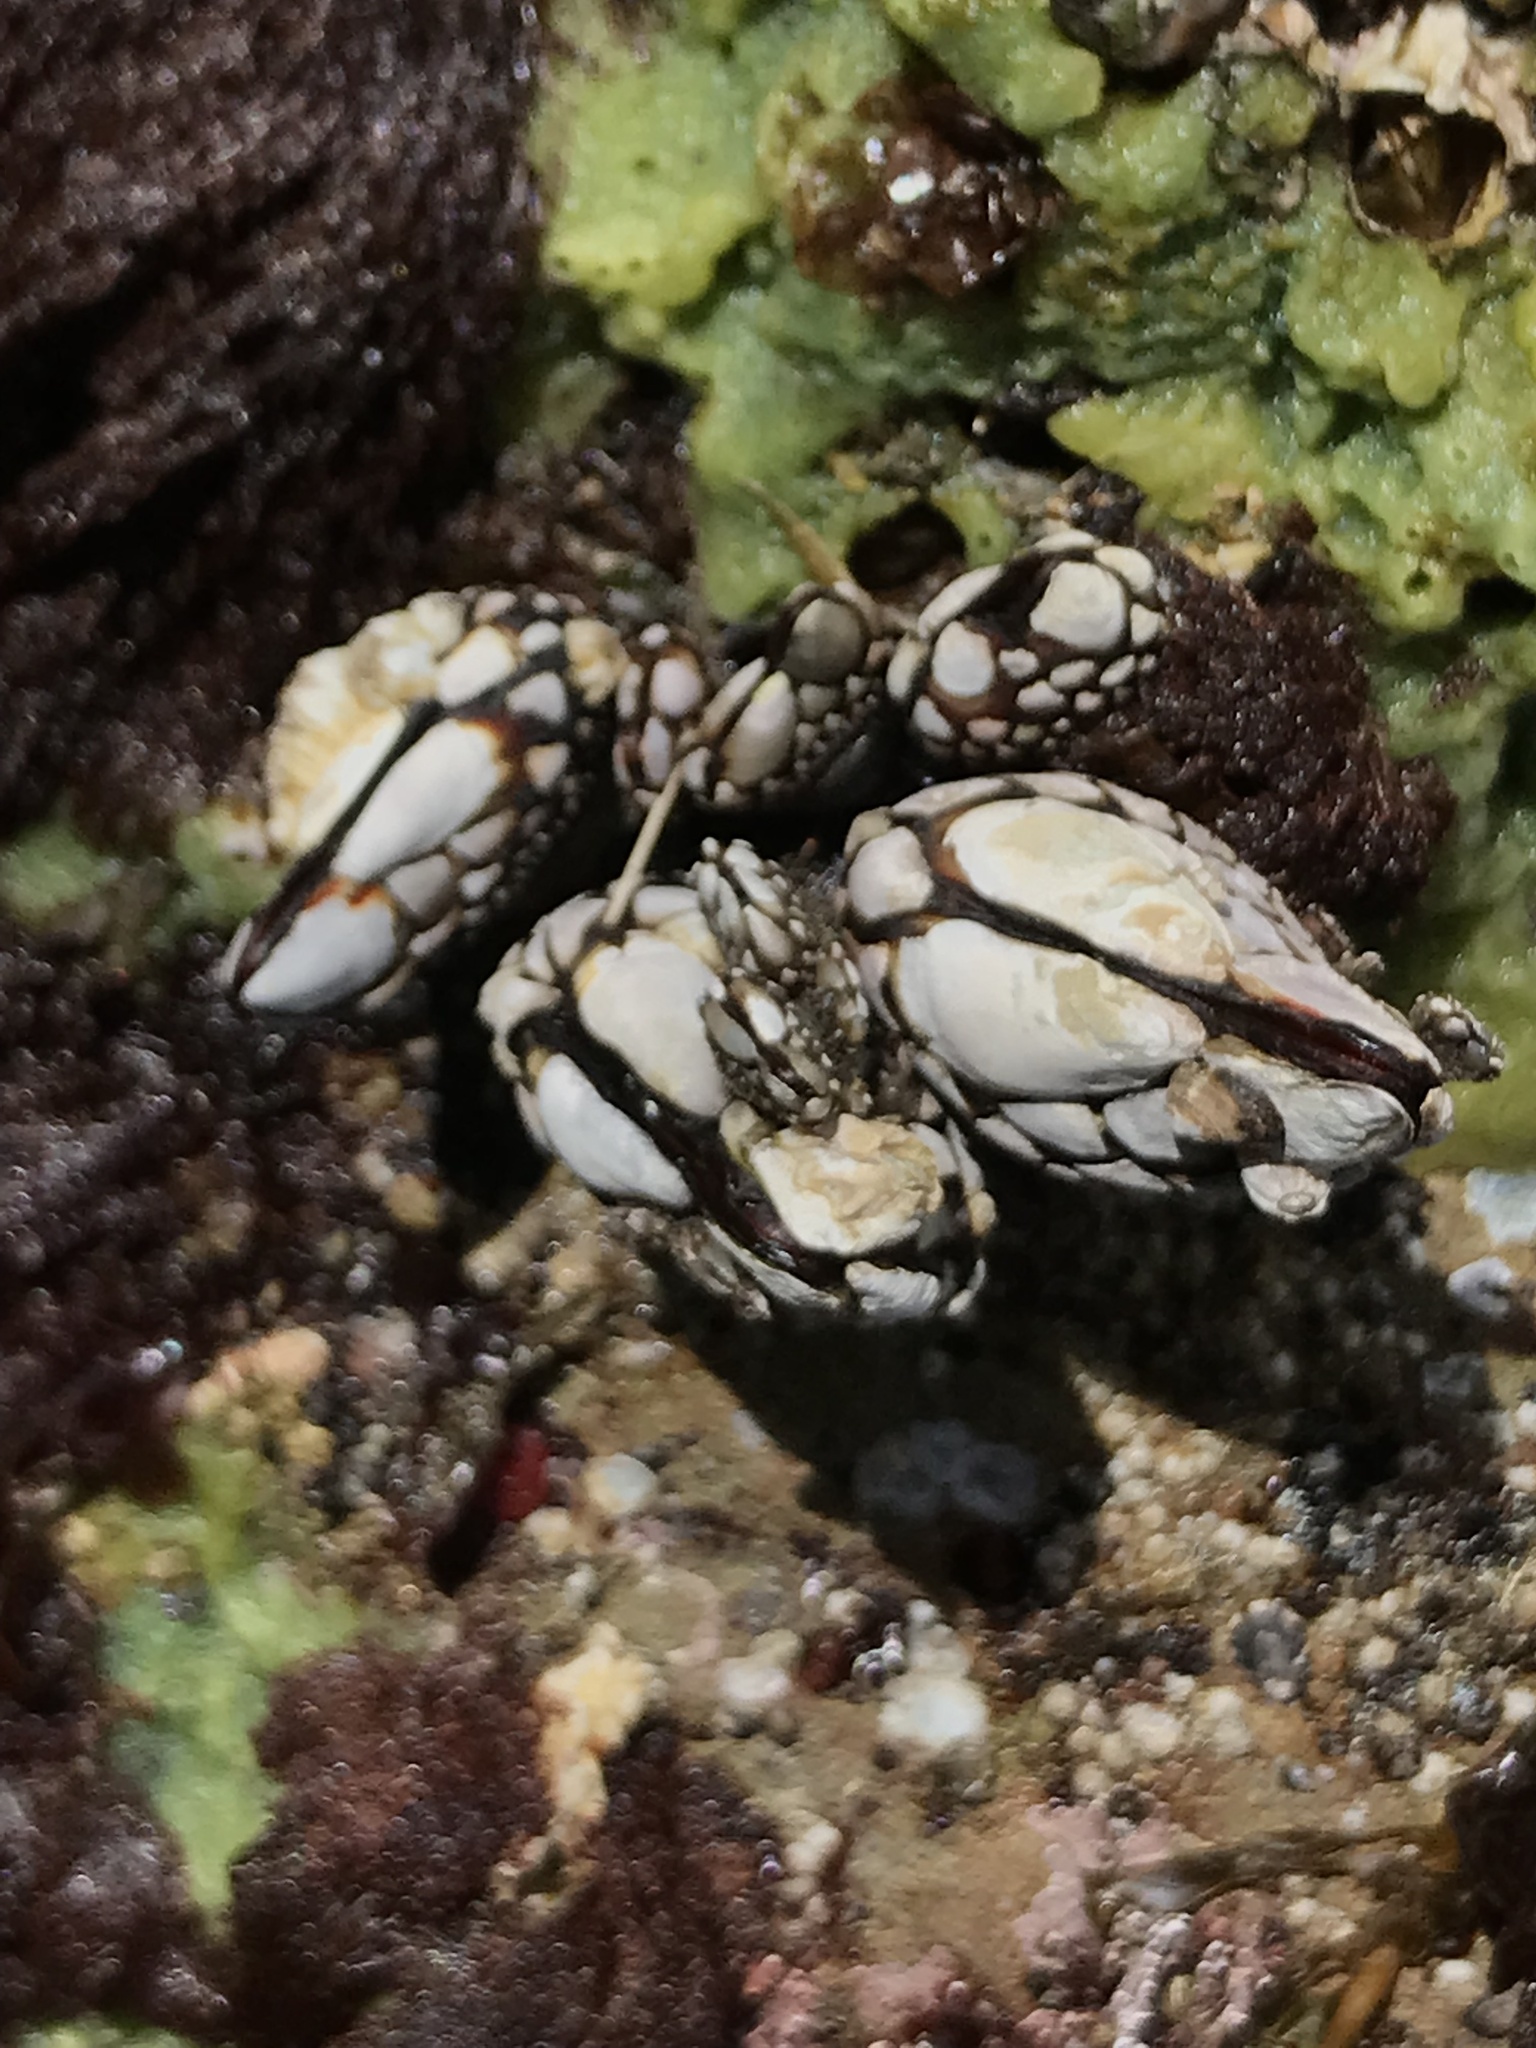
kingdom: Animalia
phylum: Arthropoda
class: Maxillopoda
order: Pedunculata
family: Pollicipedidae
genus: Pollicipes
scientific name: Pollicipes polymerus
